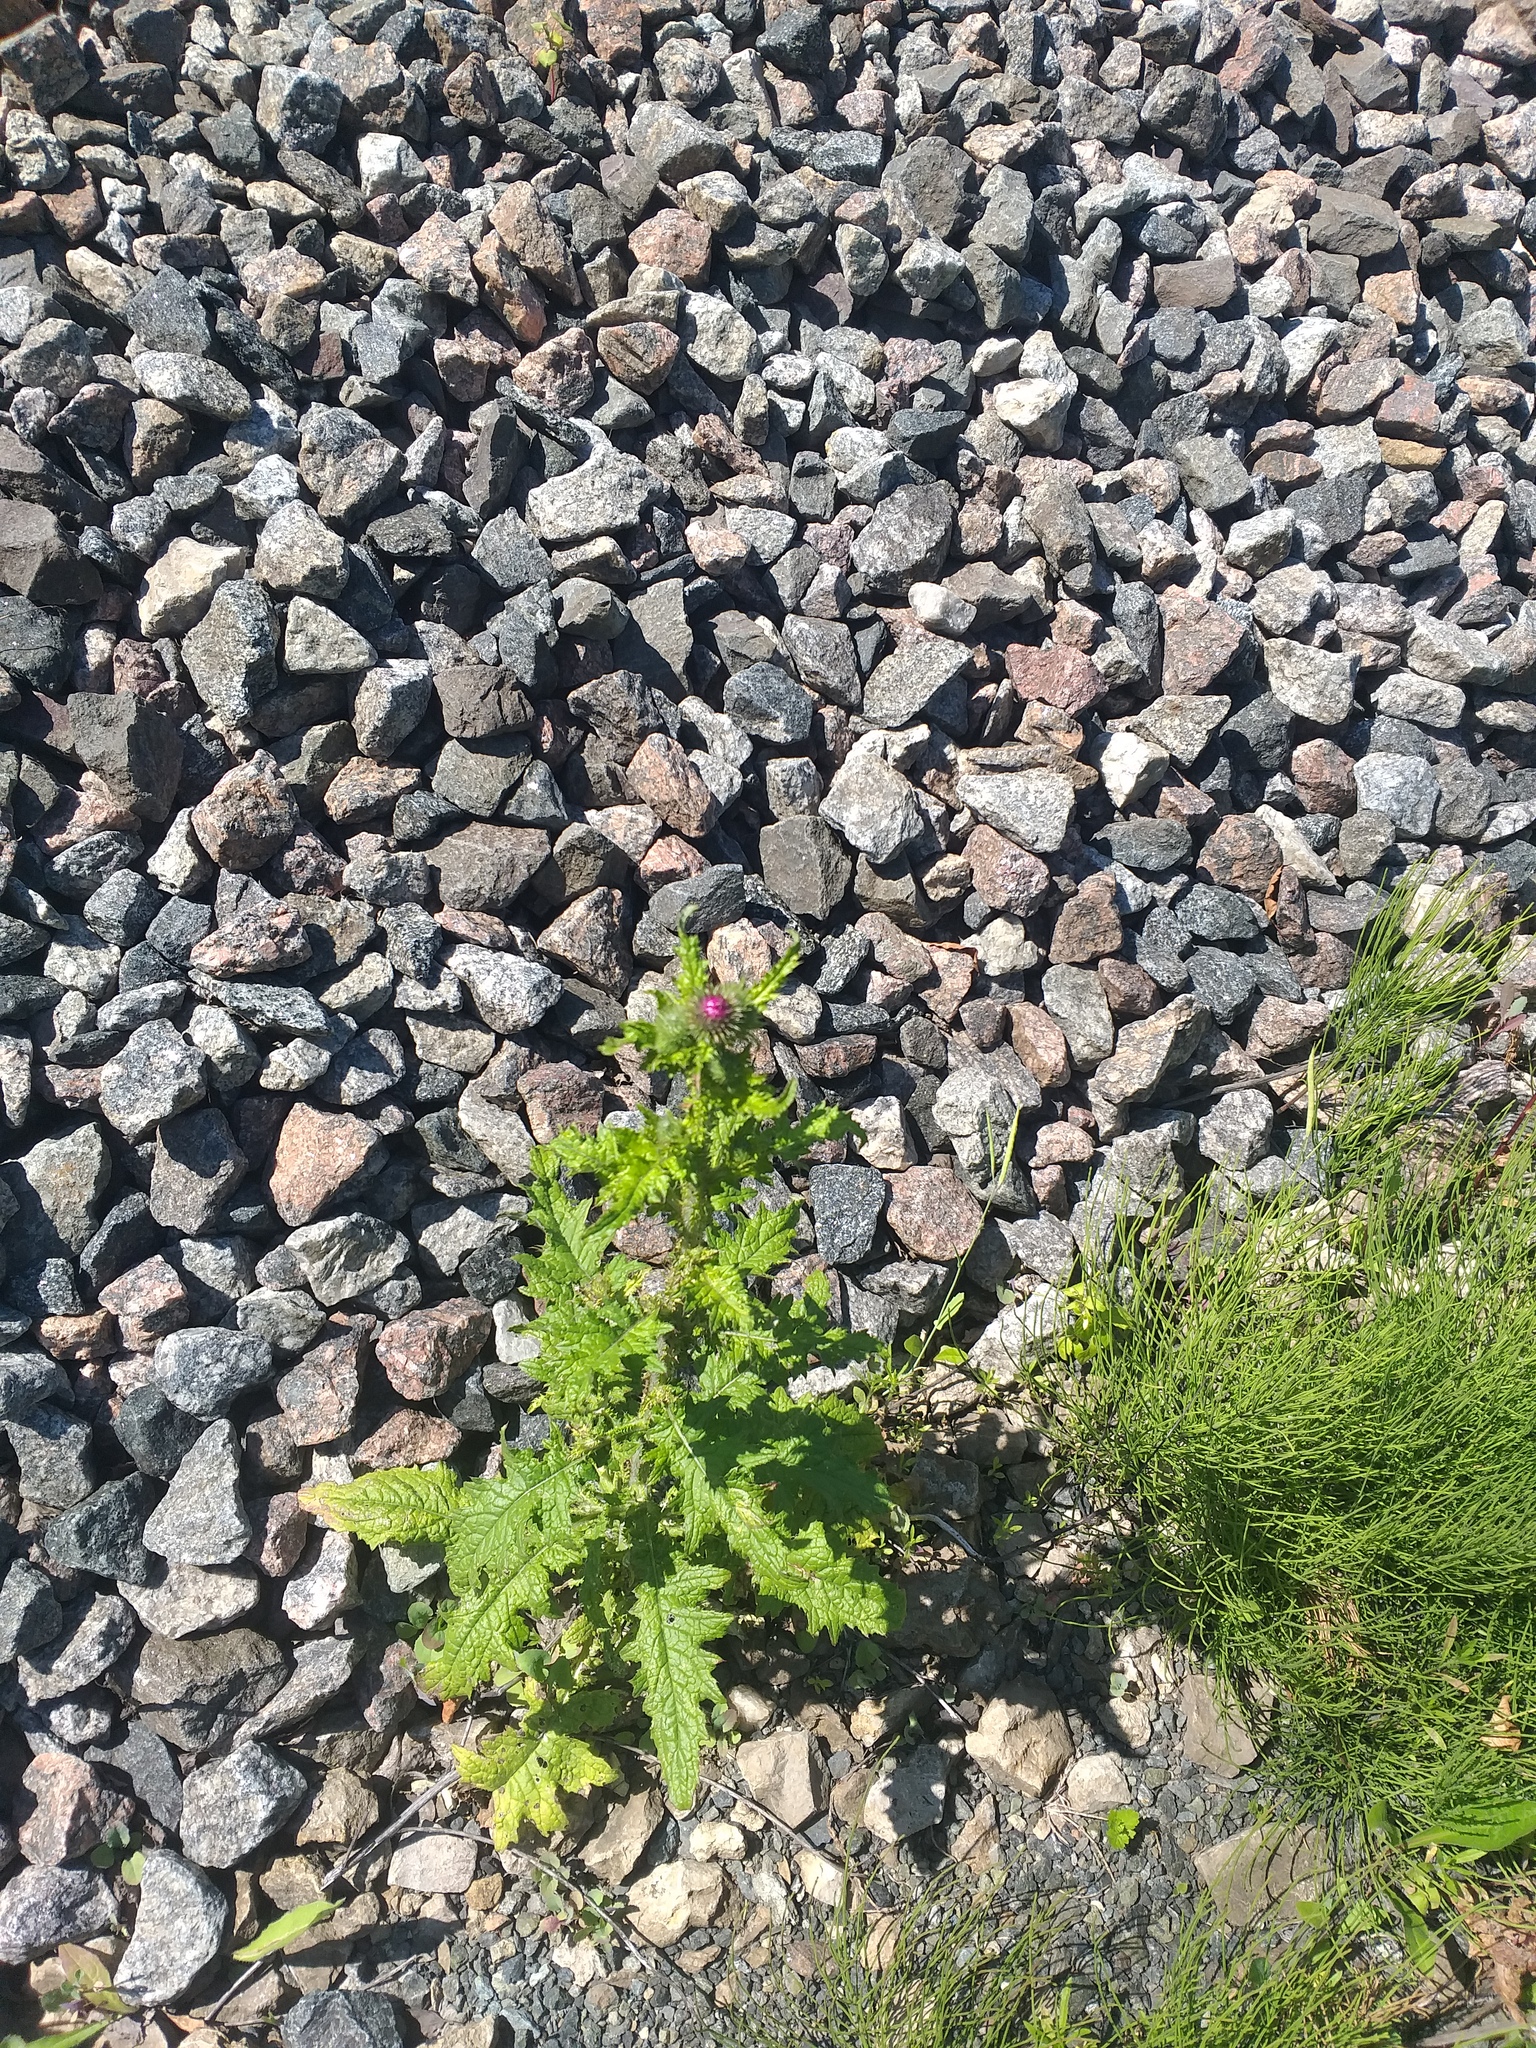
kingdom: Plantae
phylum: Tracheophyta
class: Magnoliopsida
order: Asterales
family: Asteraceae
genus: Carduus
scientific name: Carduus crispus
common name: Welted thistle
